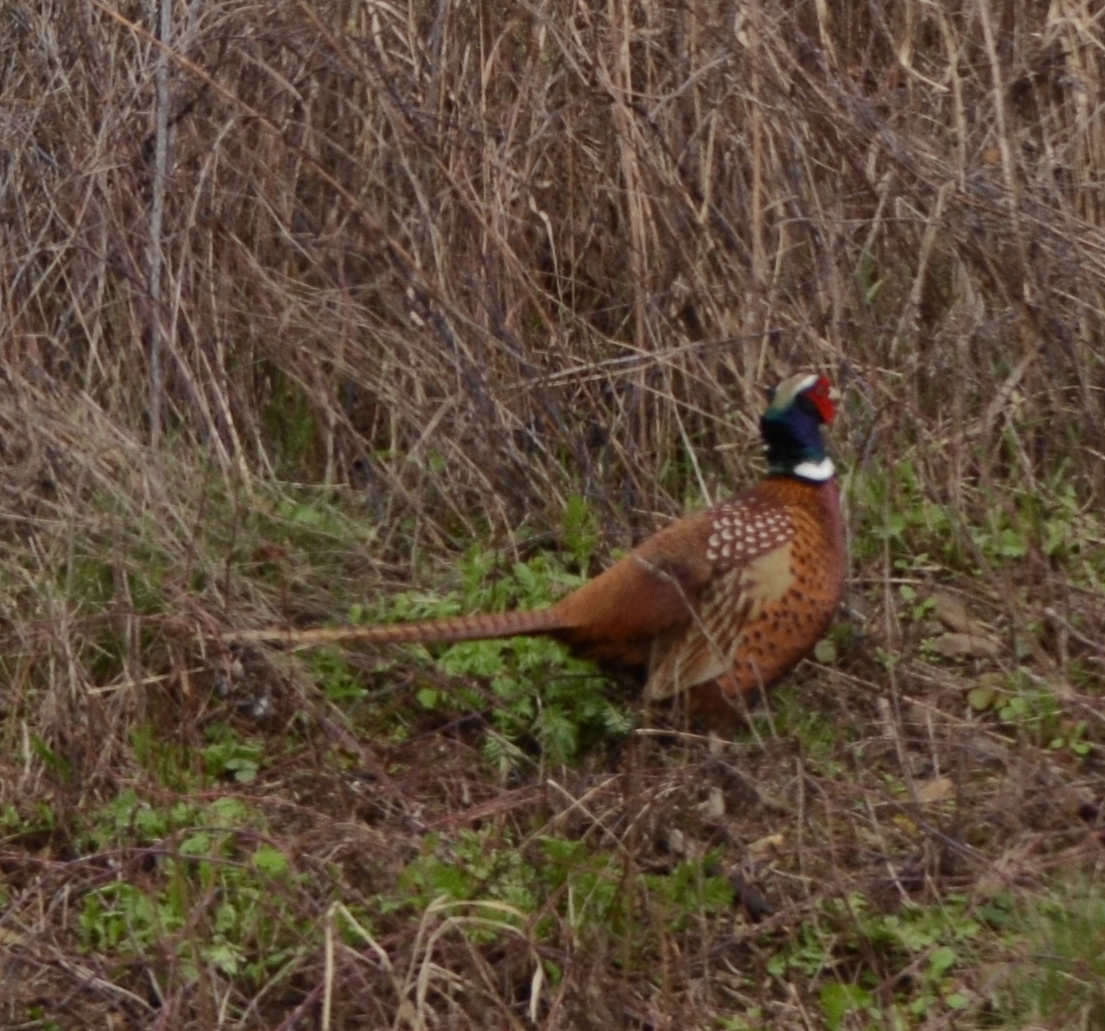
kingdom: Animalia
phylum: Chordata
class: Aves
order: Galliformes
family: Phasianidae
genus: Phasianus
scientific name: Phasianus colchicus
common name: Common pheasant
